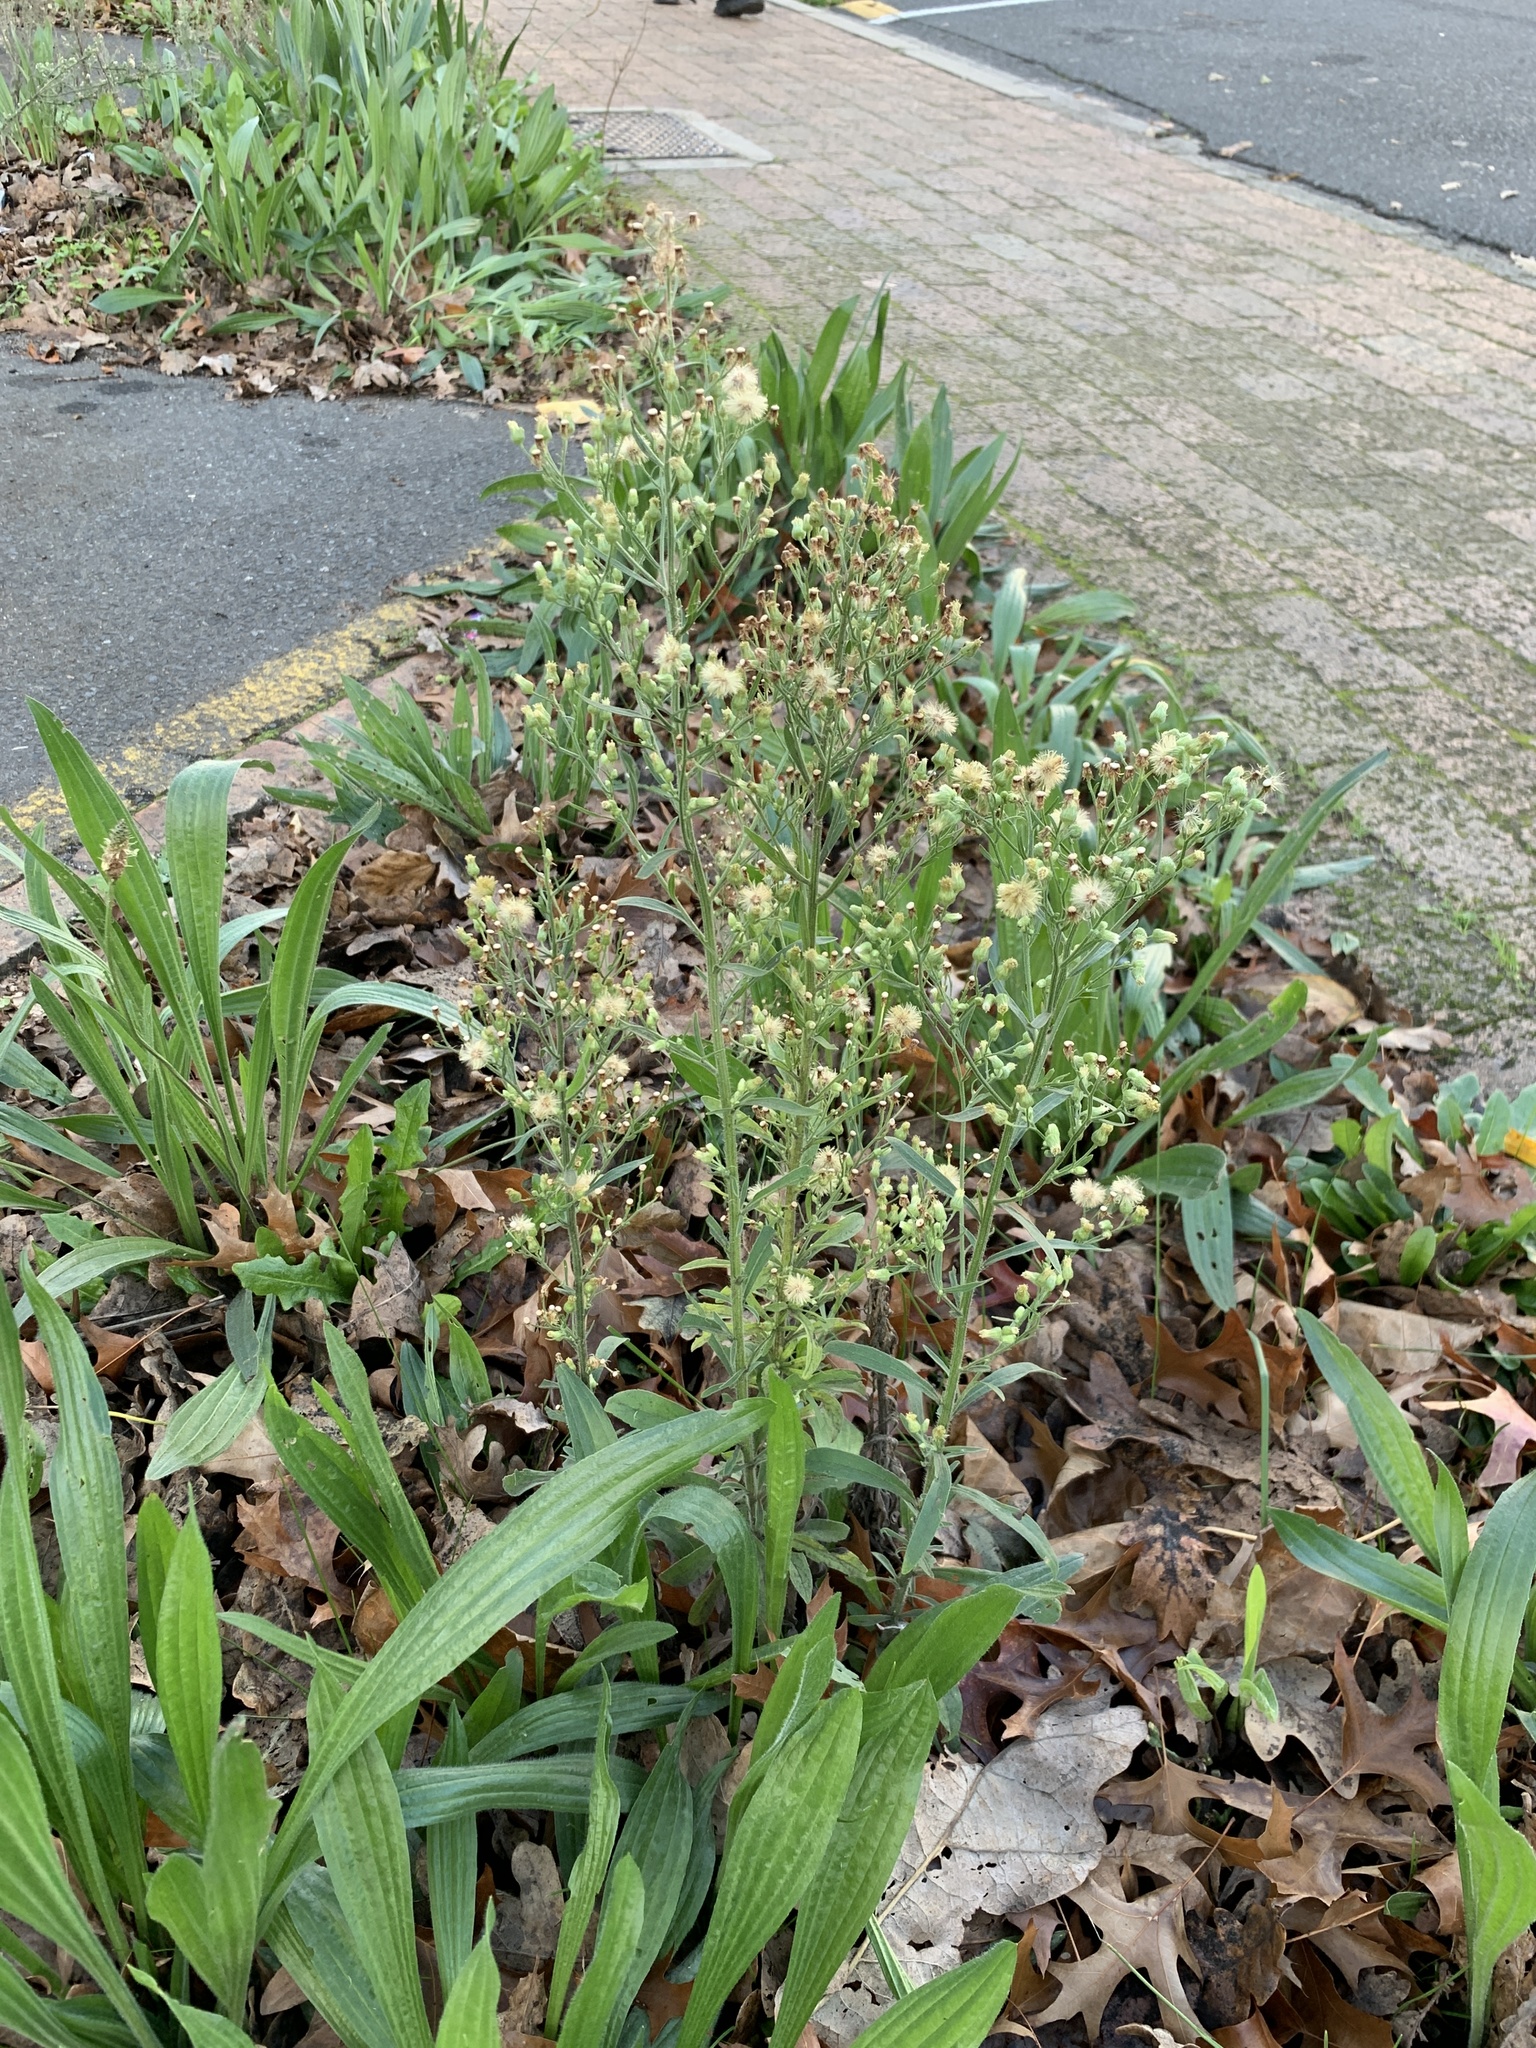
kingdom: Plantae
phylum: Tracheophyta
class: Magnoliopsida
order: Asterales
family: Asteraceae
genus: Erigeron
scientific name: Erigeron sumatrensis
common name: Daisy
